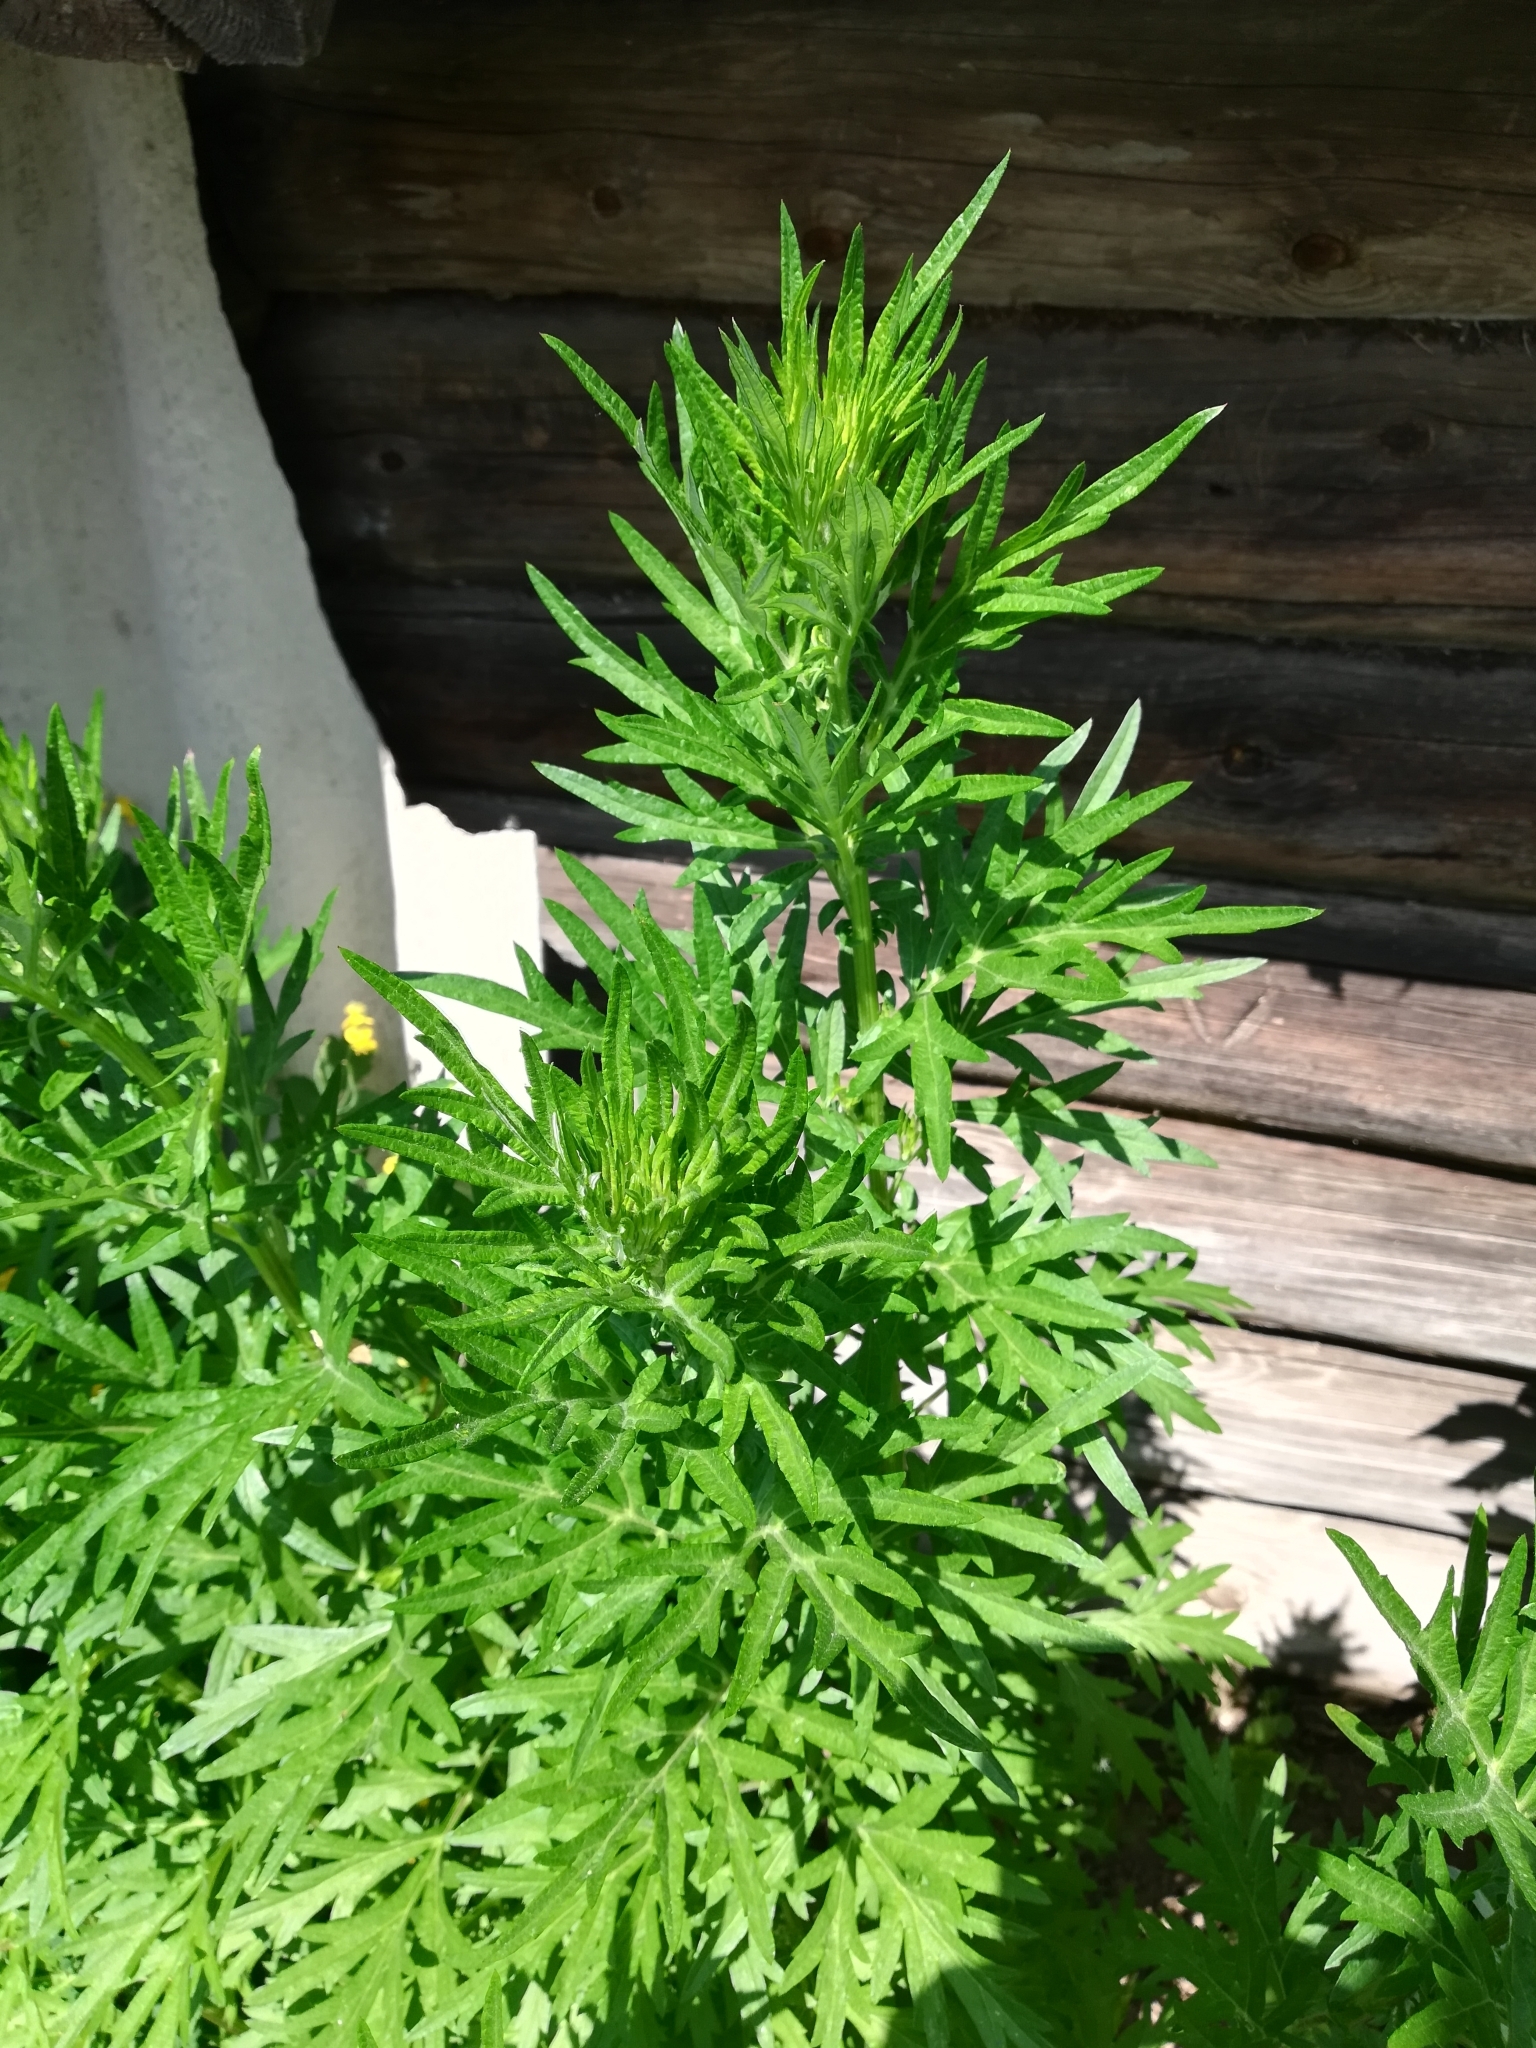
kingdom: Plantae
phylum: Tracheophyta
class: Magnoliopsida
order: Asterales
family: Asteraceae
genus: Artemisia
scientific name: Artemisia vulgaris
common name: Mugwort
